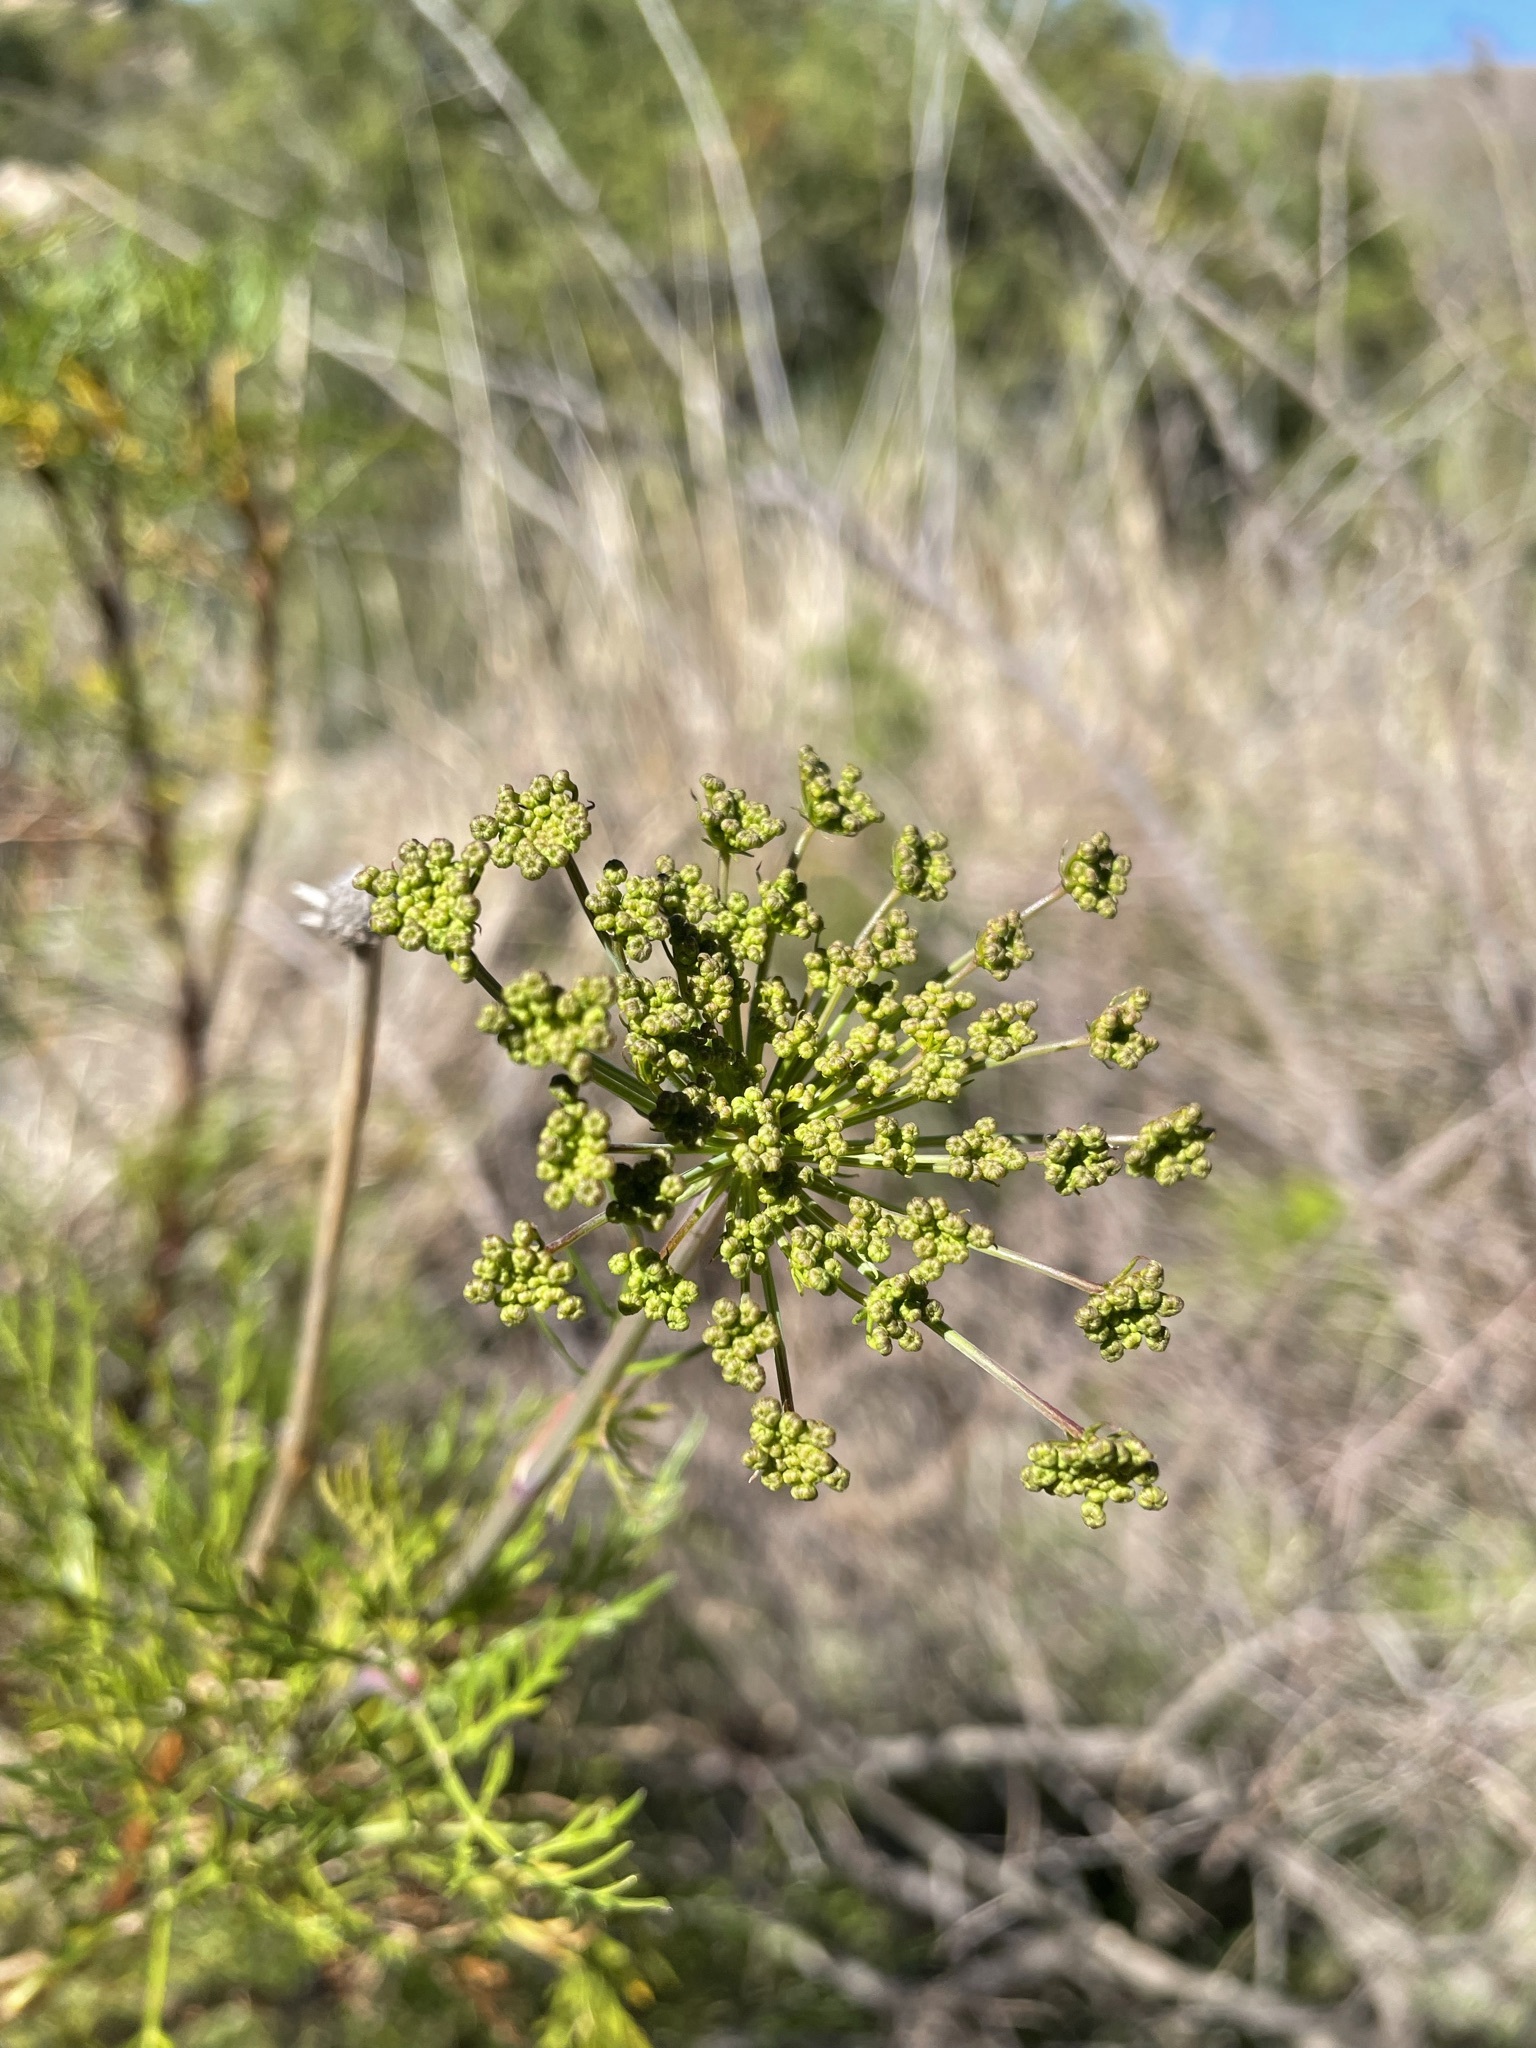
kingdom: Plantae
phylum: Tracheophyta
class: Magnoliopsida
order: Apiales
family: Apiaceae
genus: Notobubon
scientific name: Notobubon tenuifolium
